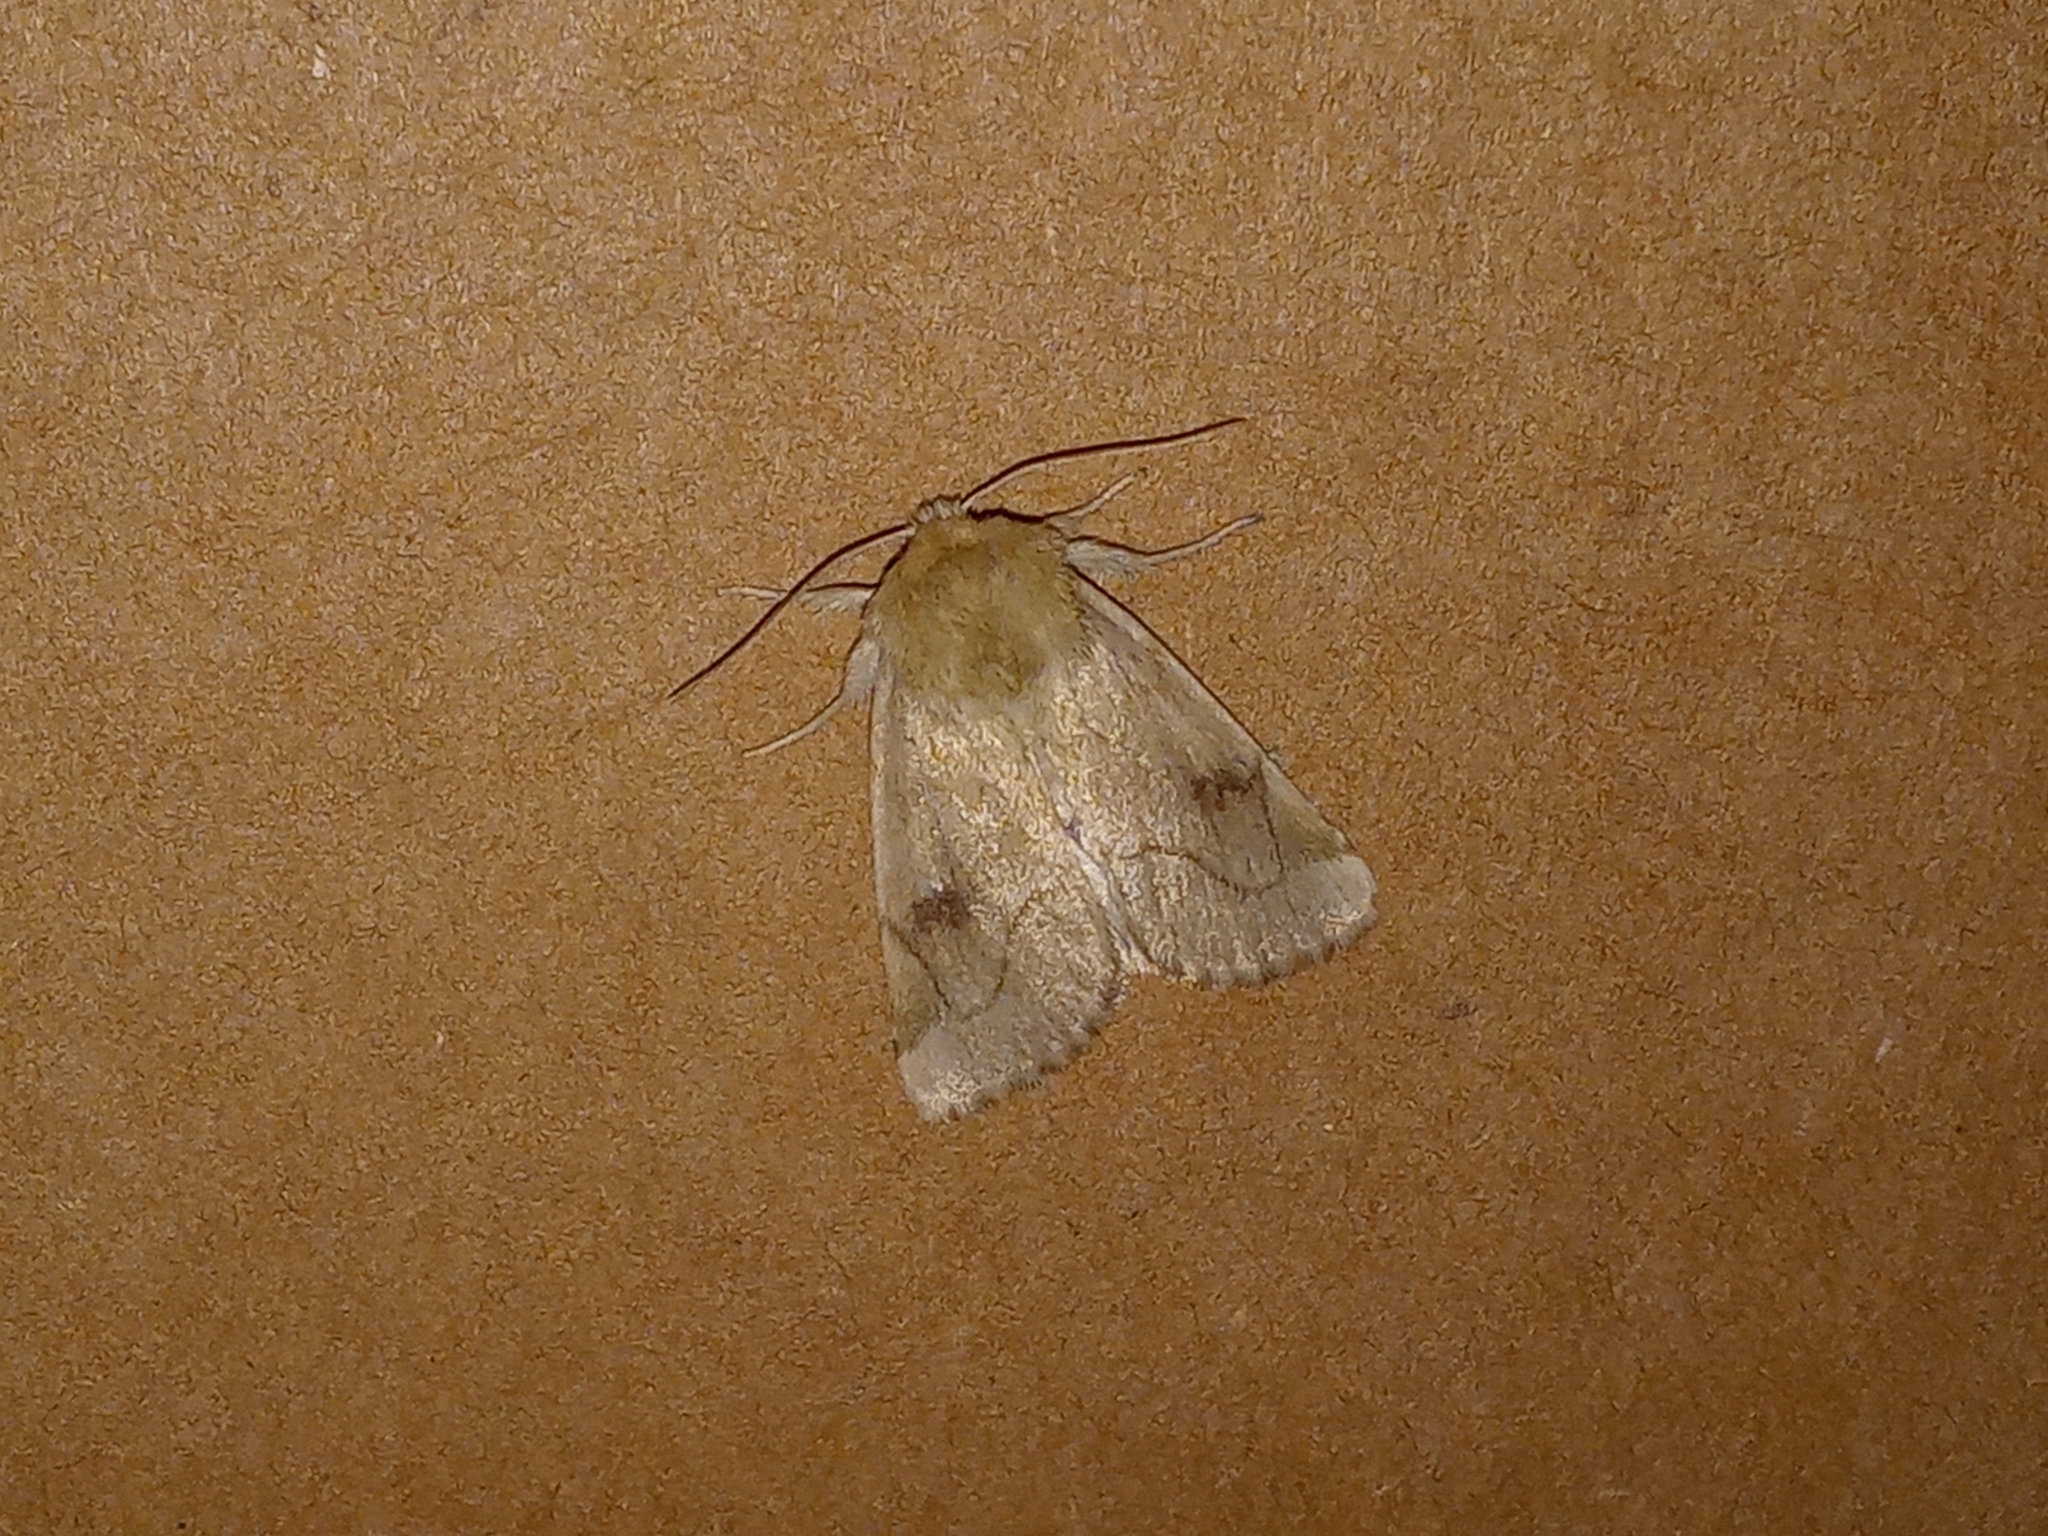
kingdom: Animalia
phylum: Arthropoda
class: Insecta
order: Lepidoptera
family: Noctuidae
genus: Zotheca
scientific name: Zotheca tranquilla
